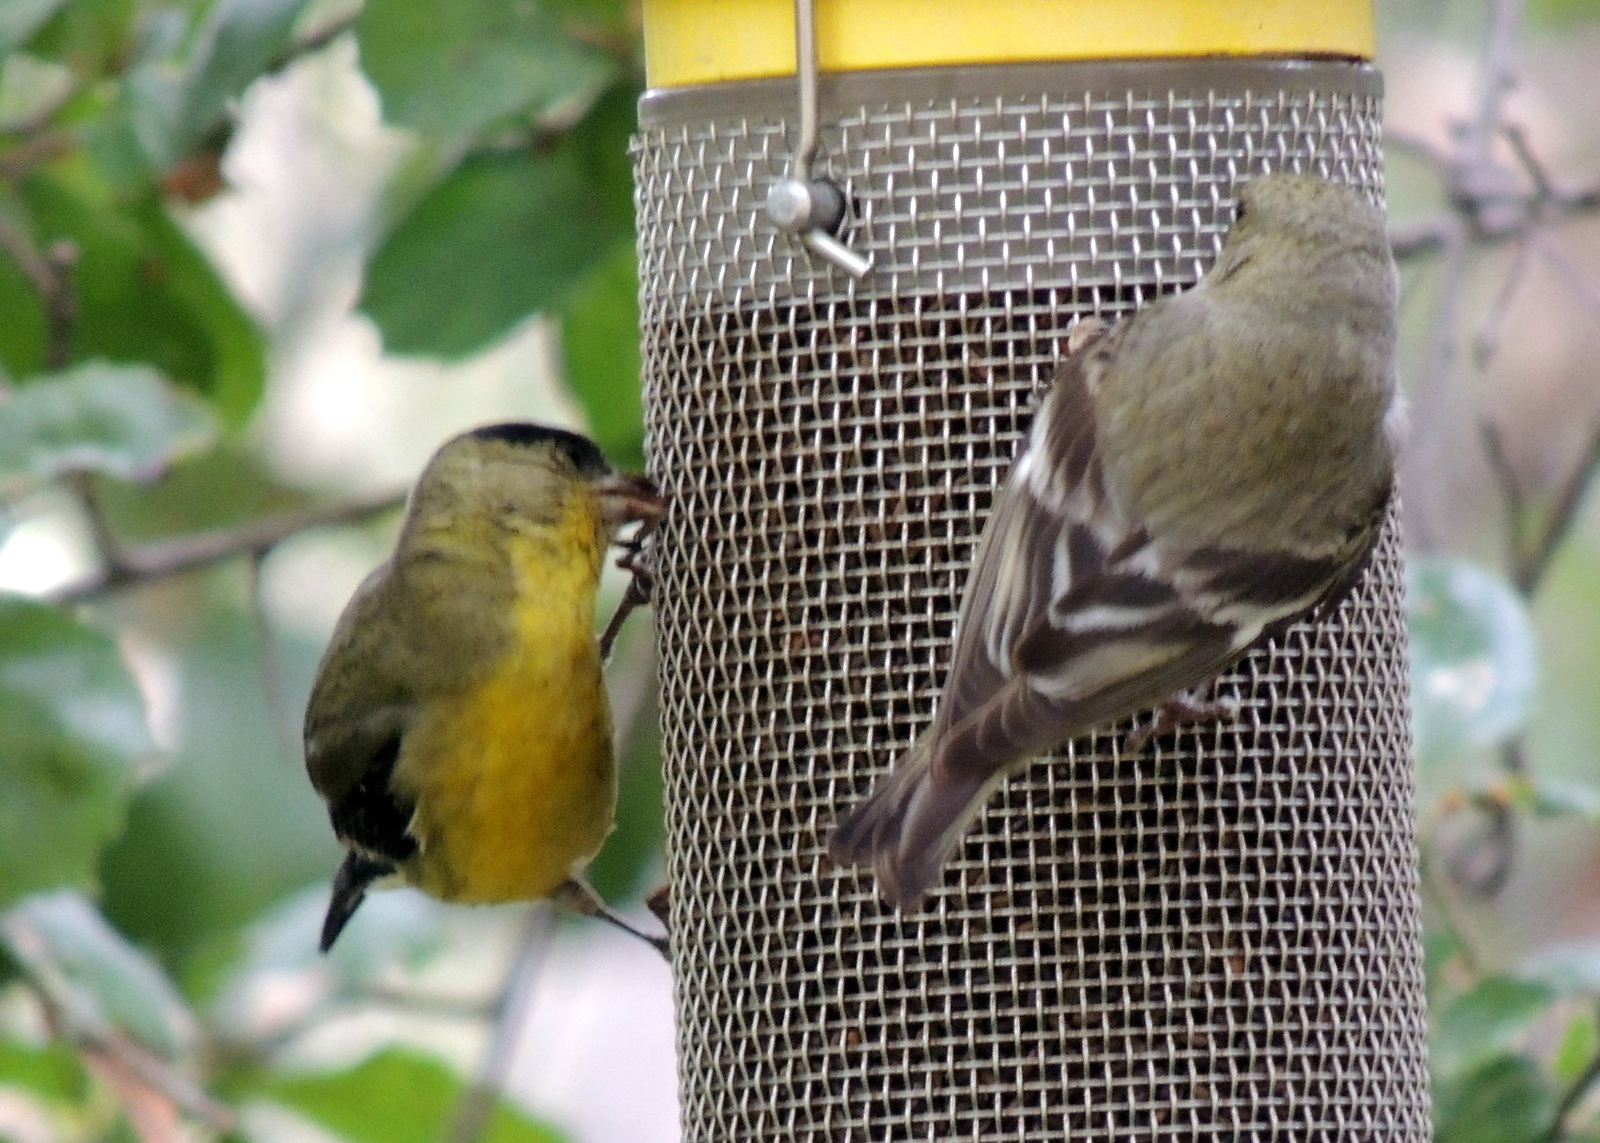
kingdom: Animalia
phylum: Chordata
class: Aves
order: Passeriformes
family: Fringillidae
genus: Spinus
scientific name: Spinus psaltria
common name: Lesser goldfinch
